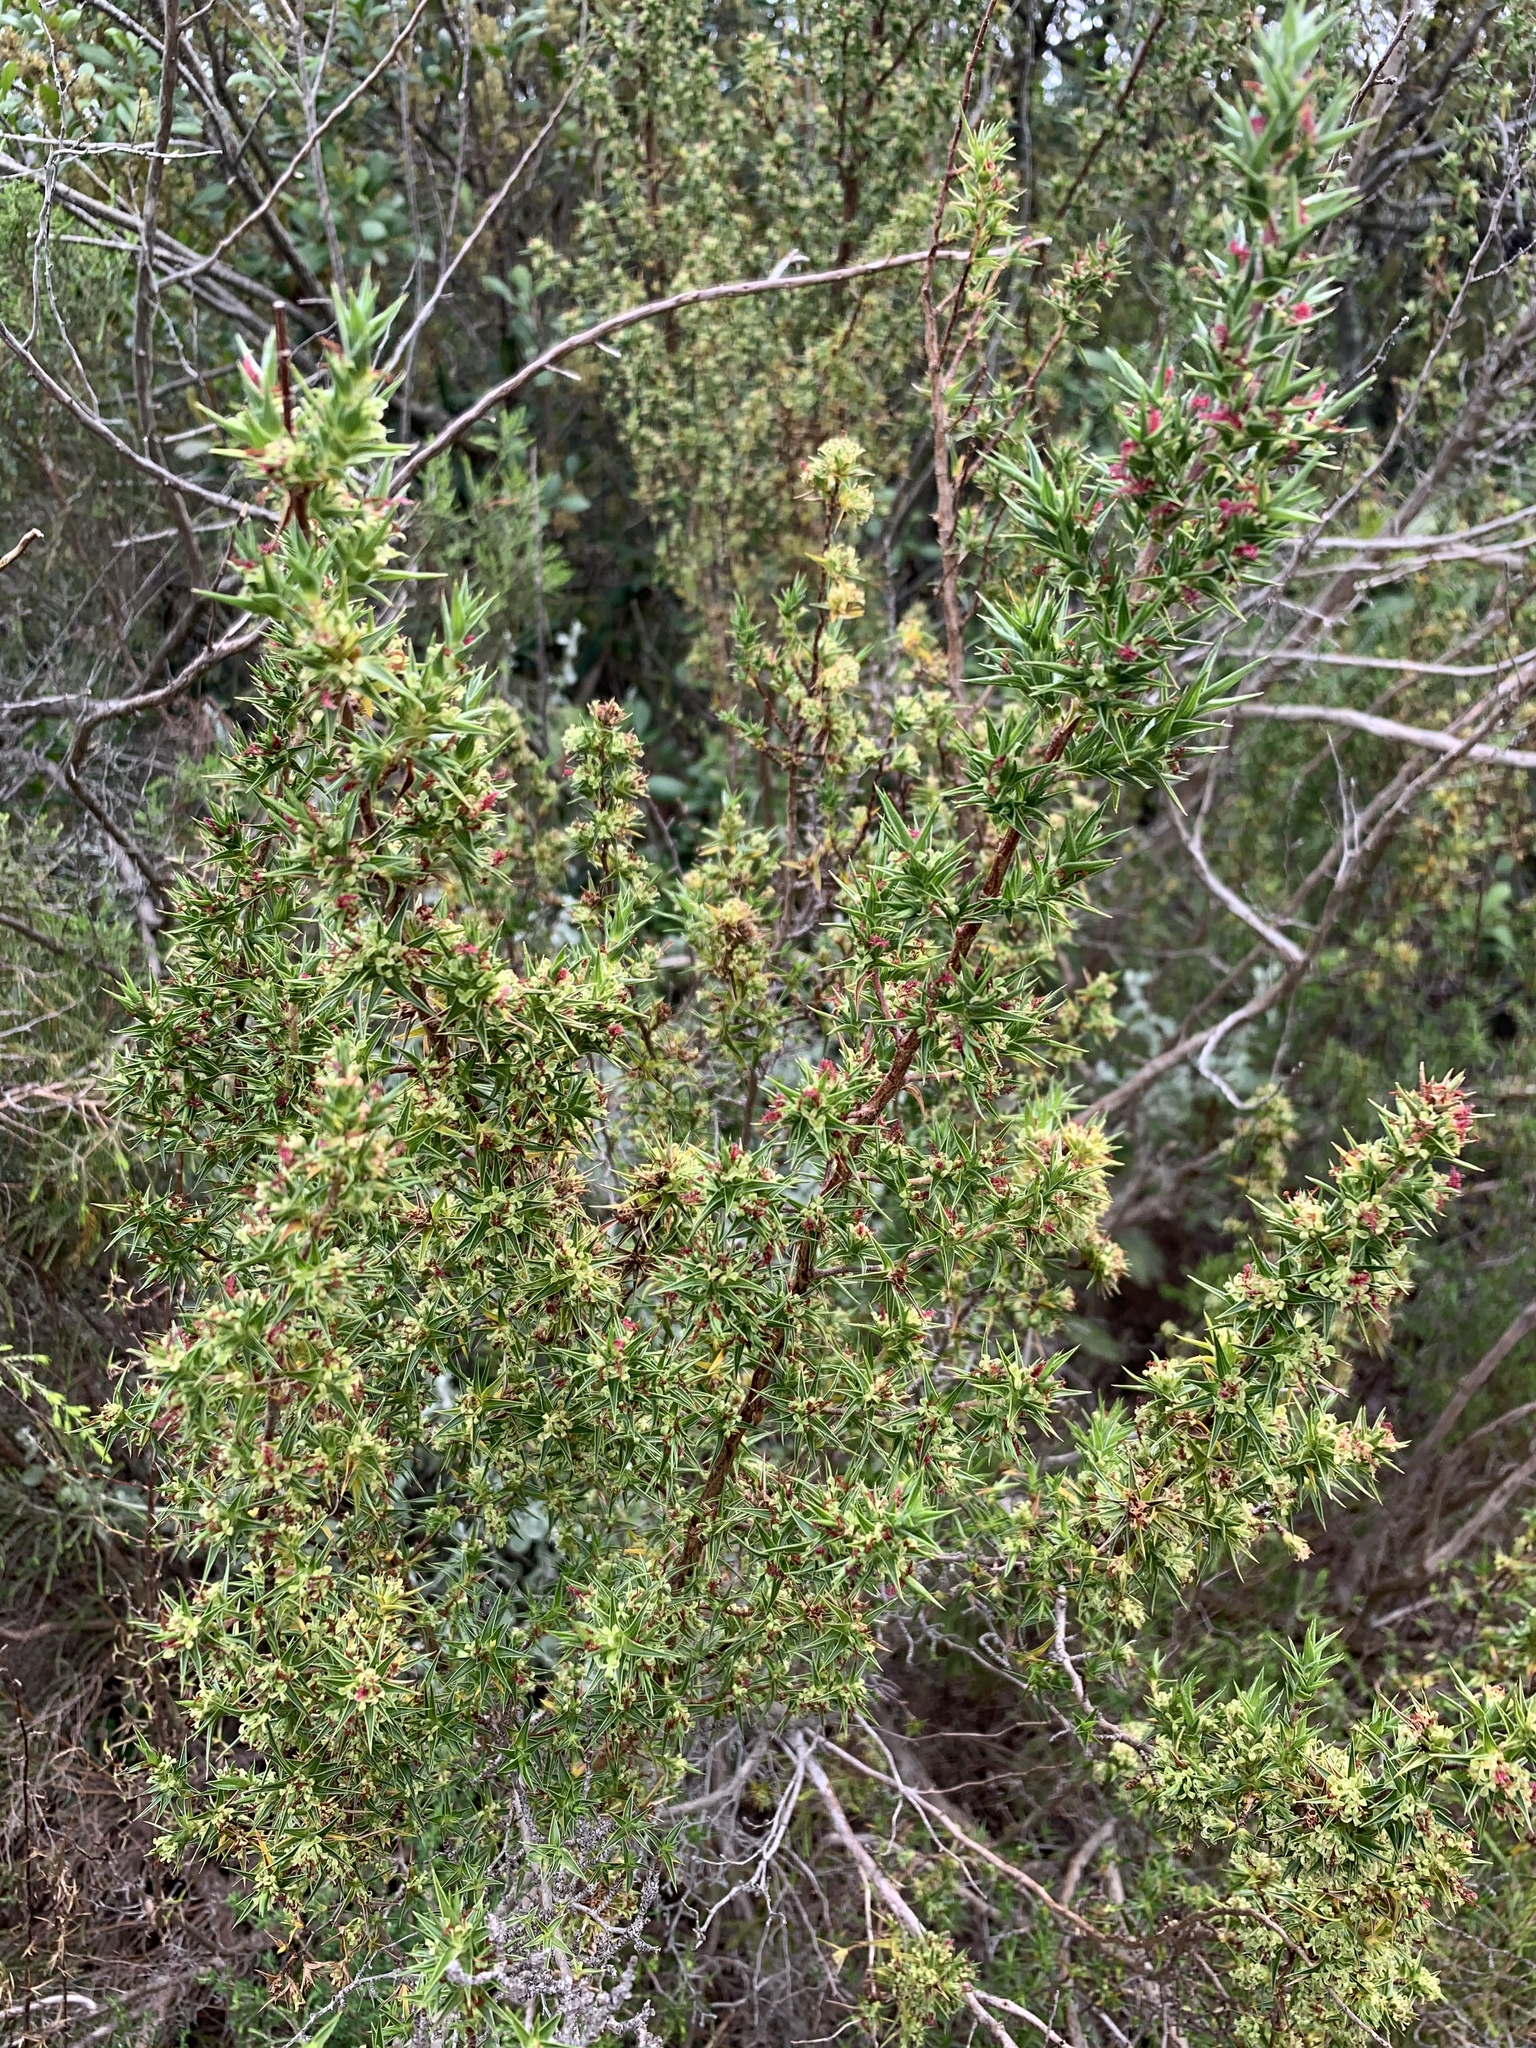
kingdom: Plantae
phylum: Tracheophyta
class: Magnoliopsida
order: Rosales
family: Rosaceae
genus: Cliffortia
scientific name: Cliffortia ruscifolia
